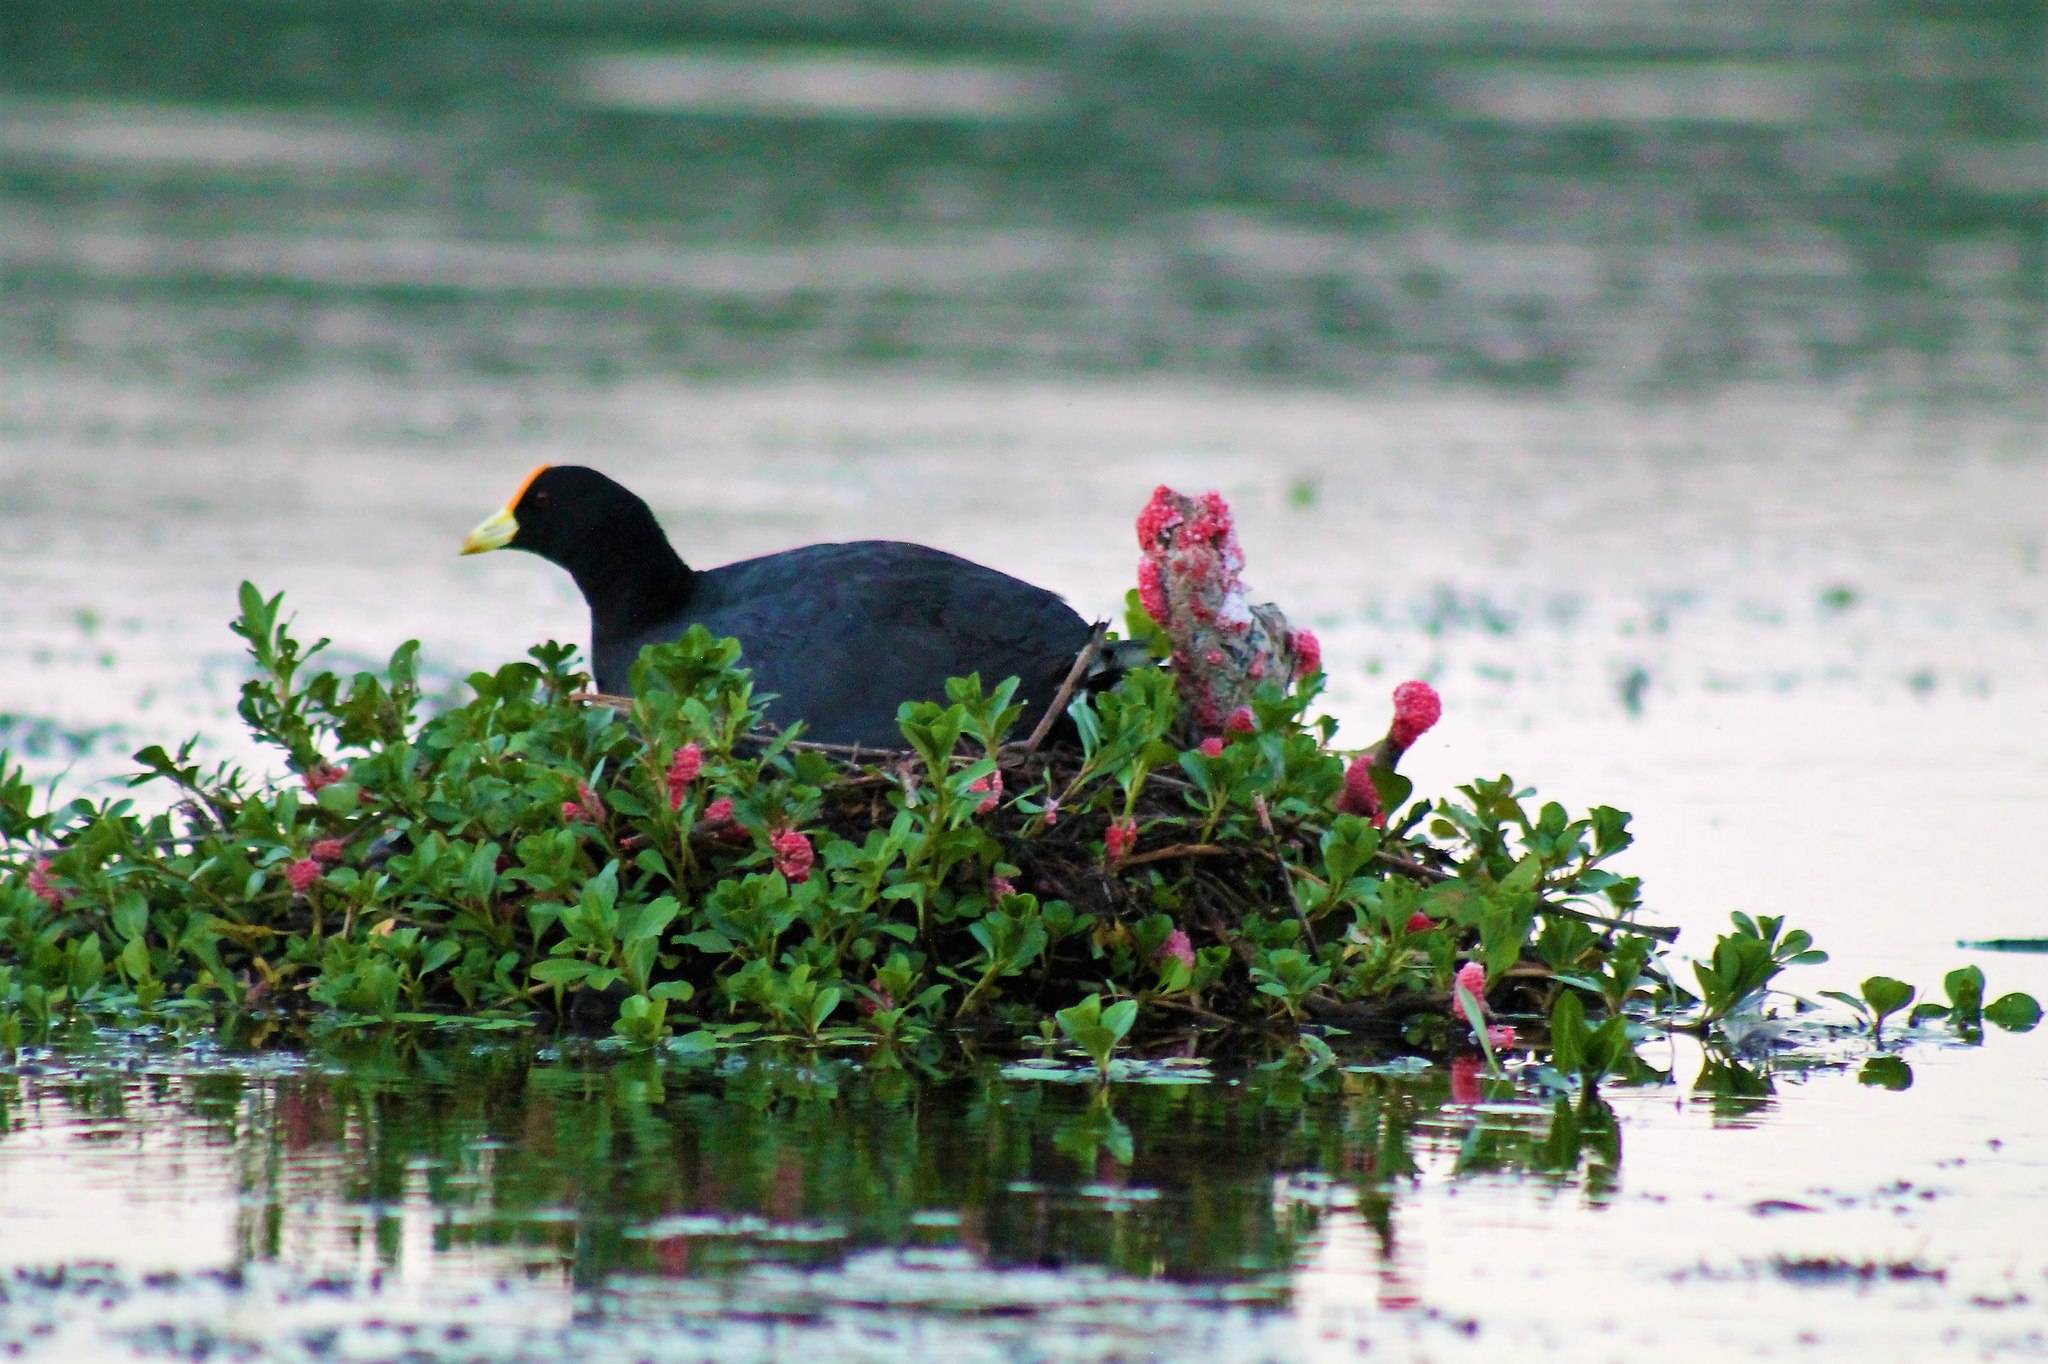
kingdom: Animalia
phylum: Chordata
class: Aves
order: Gruiformes
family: Rallidae
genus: Fulica
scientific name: Fulica leucoptera
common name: White-winged coot
